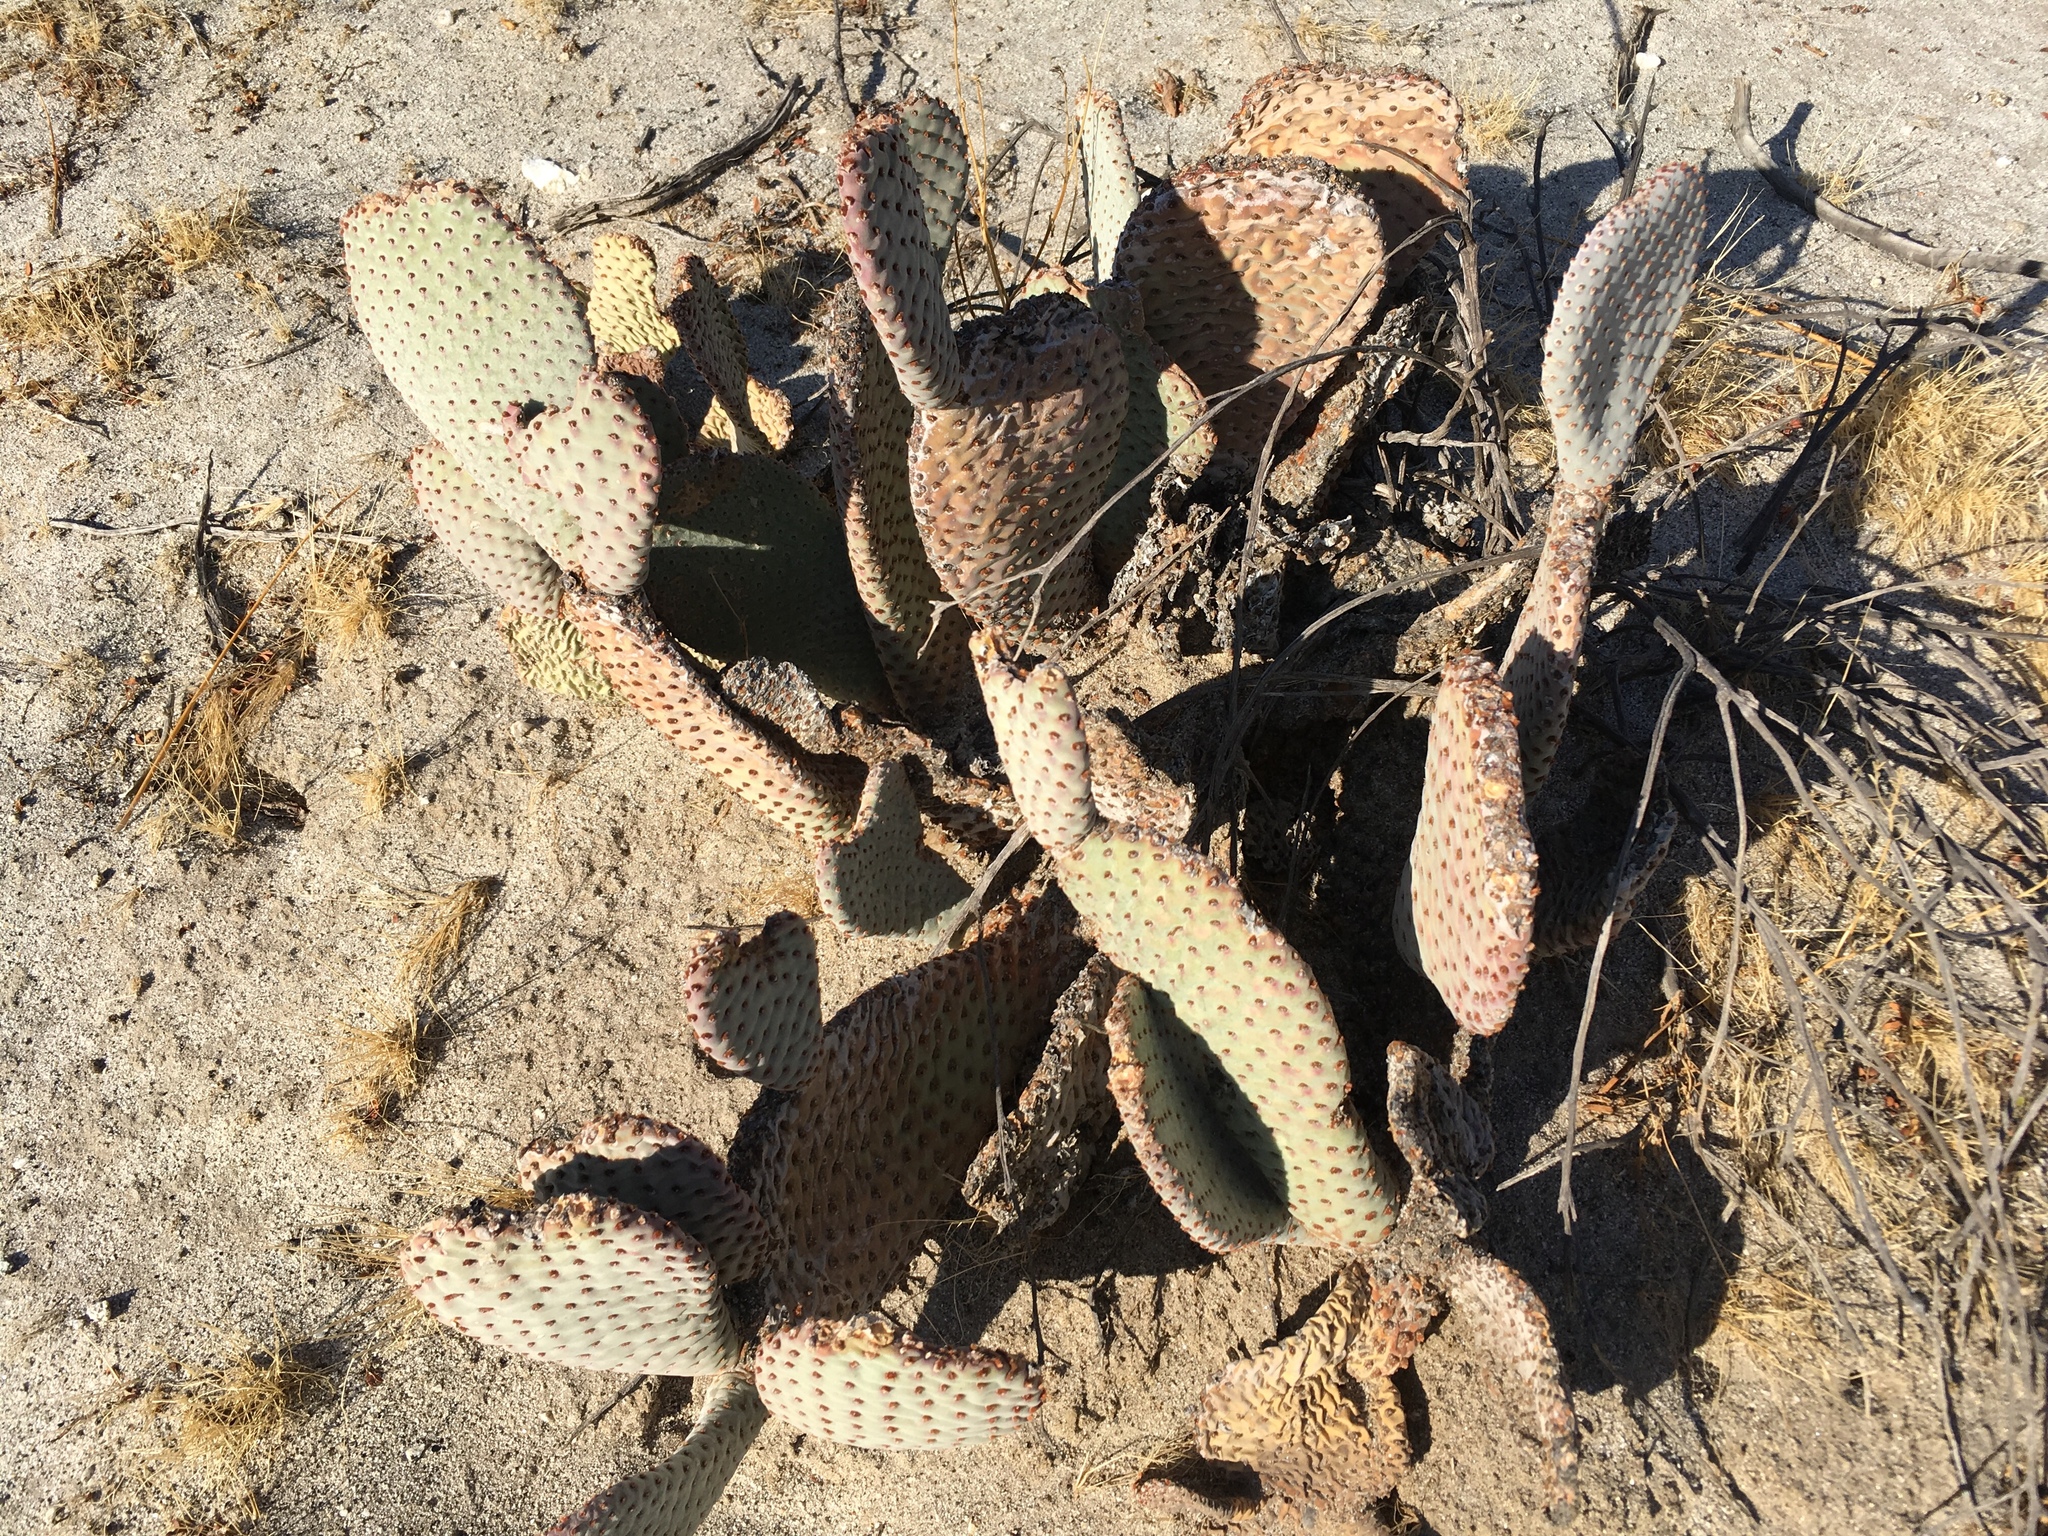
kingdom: Plantae
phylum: Tracheophyta
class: Magnoliopsida
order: Caryophyllales
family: Cactaceae
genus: Opuntia
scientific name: Opuntia basilaris
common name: Beavertail prickly-pear
